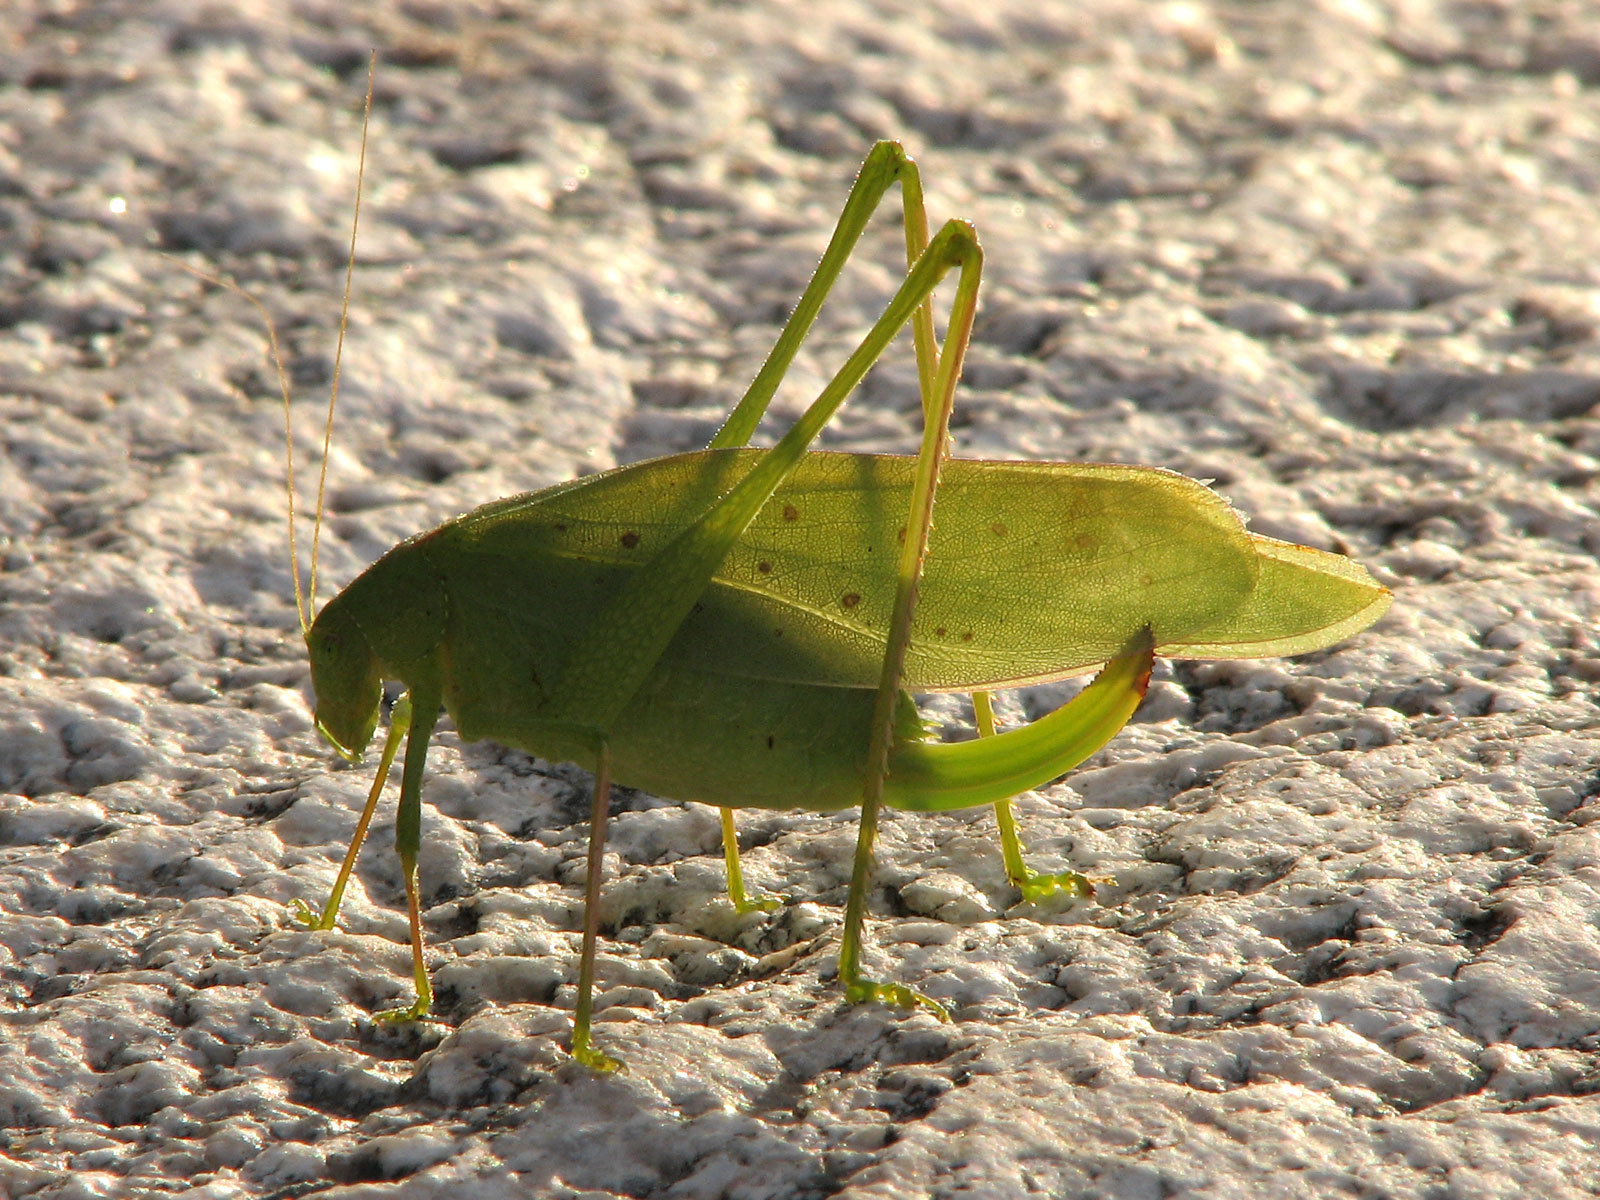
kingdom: Animalia
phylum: Arthropoda
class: Insecta
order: Orthoptera
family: Tettigoniidae
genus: Amblycorypha
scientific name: Amblycorypha insolita
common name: Big bend false katydid
